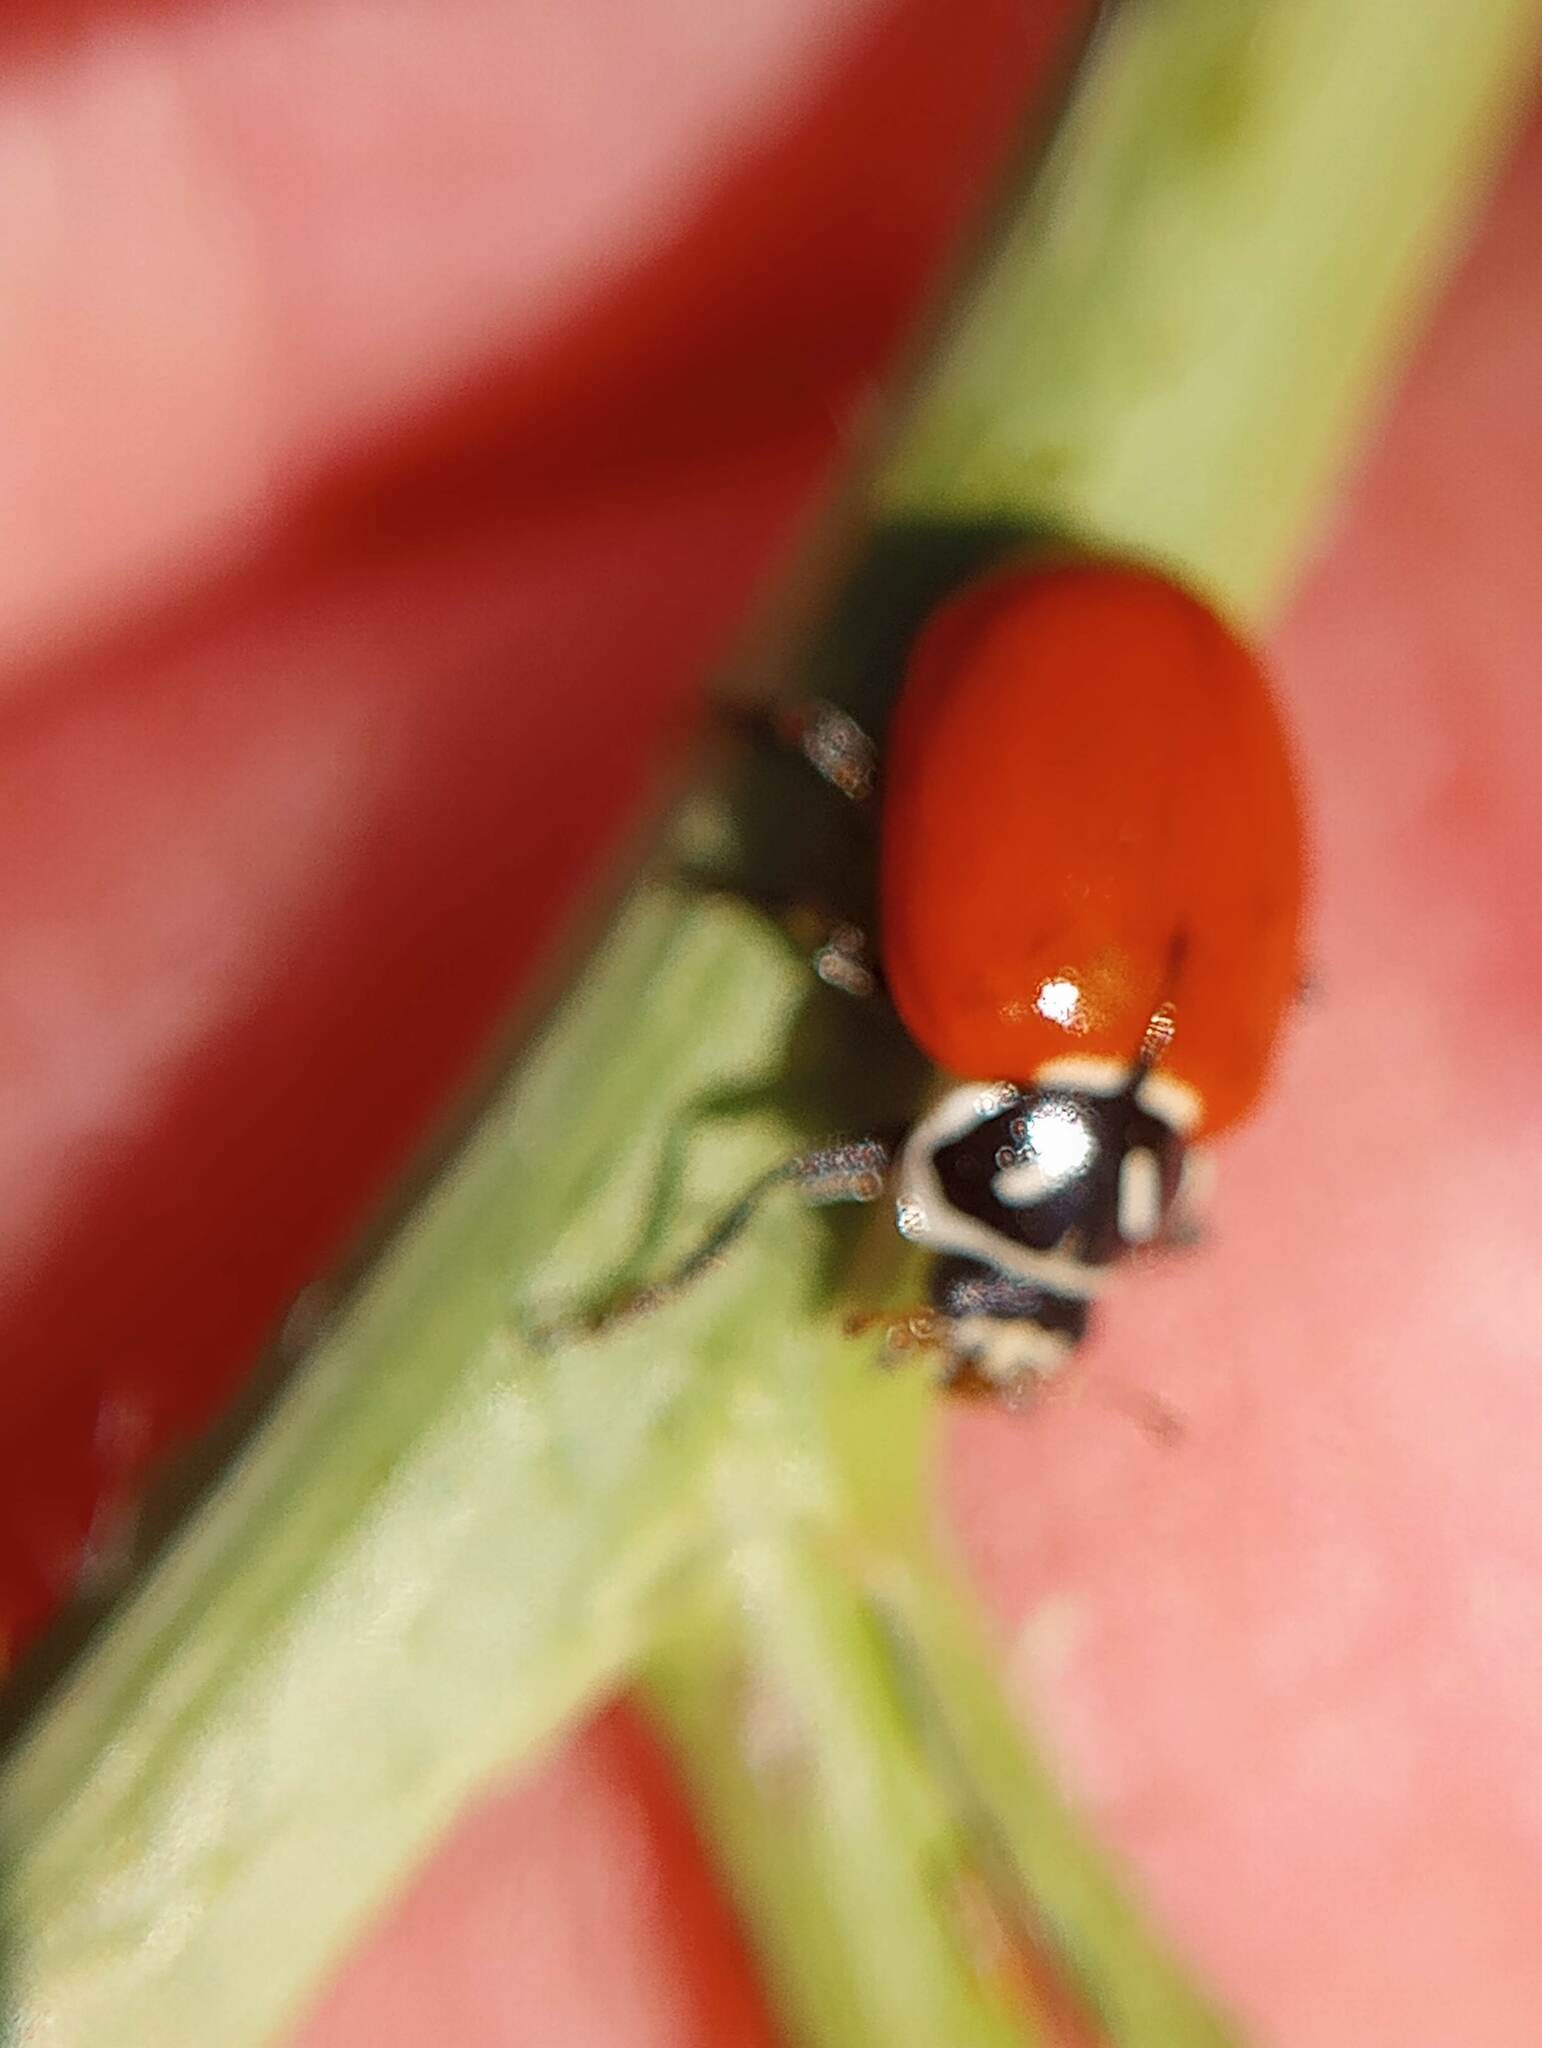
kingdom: Animalia
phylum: Arthropoda
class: Insecta
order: Coleoptera
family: Coccinellidae
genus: Hippodamia
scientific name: Hippodamia convergens
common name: Convergent lady beetle
